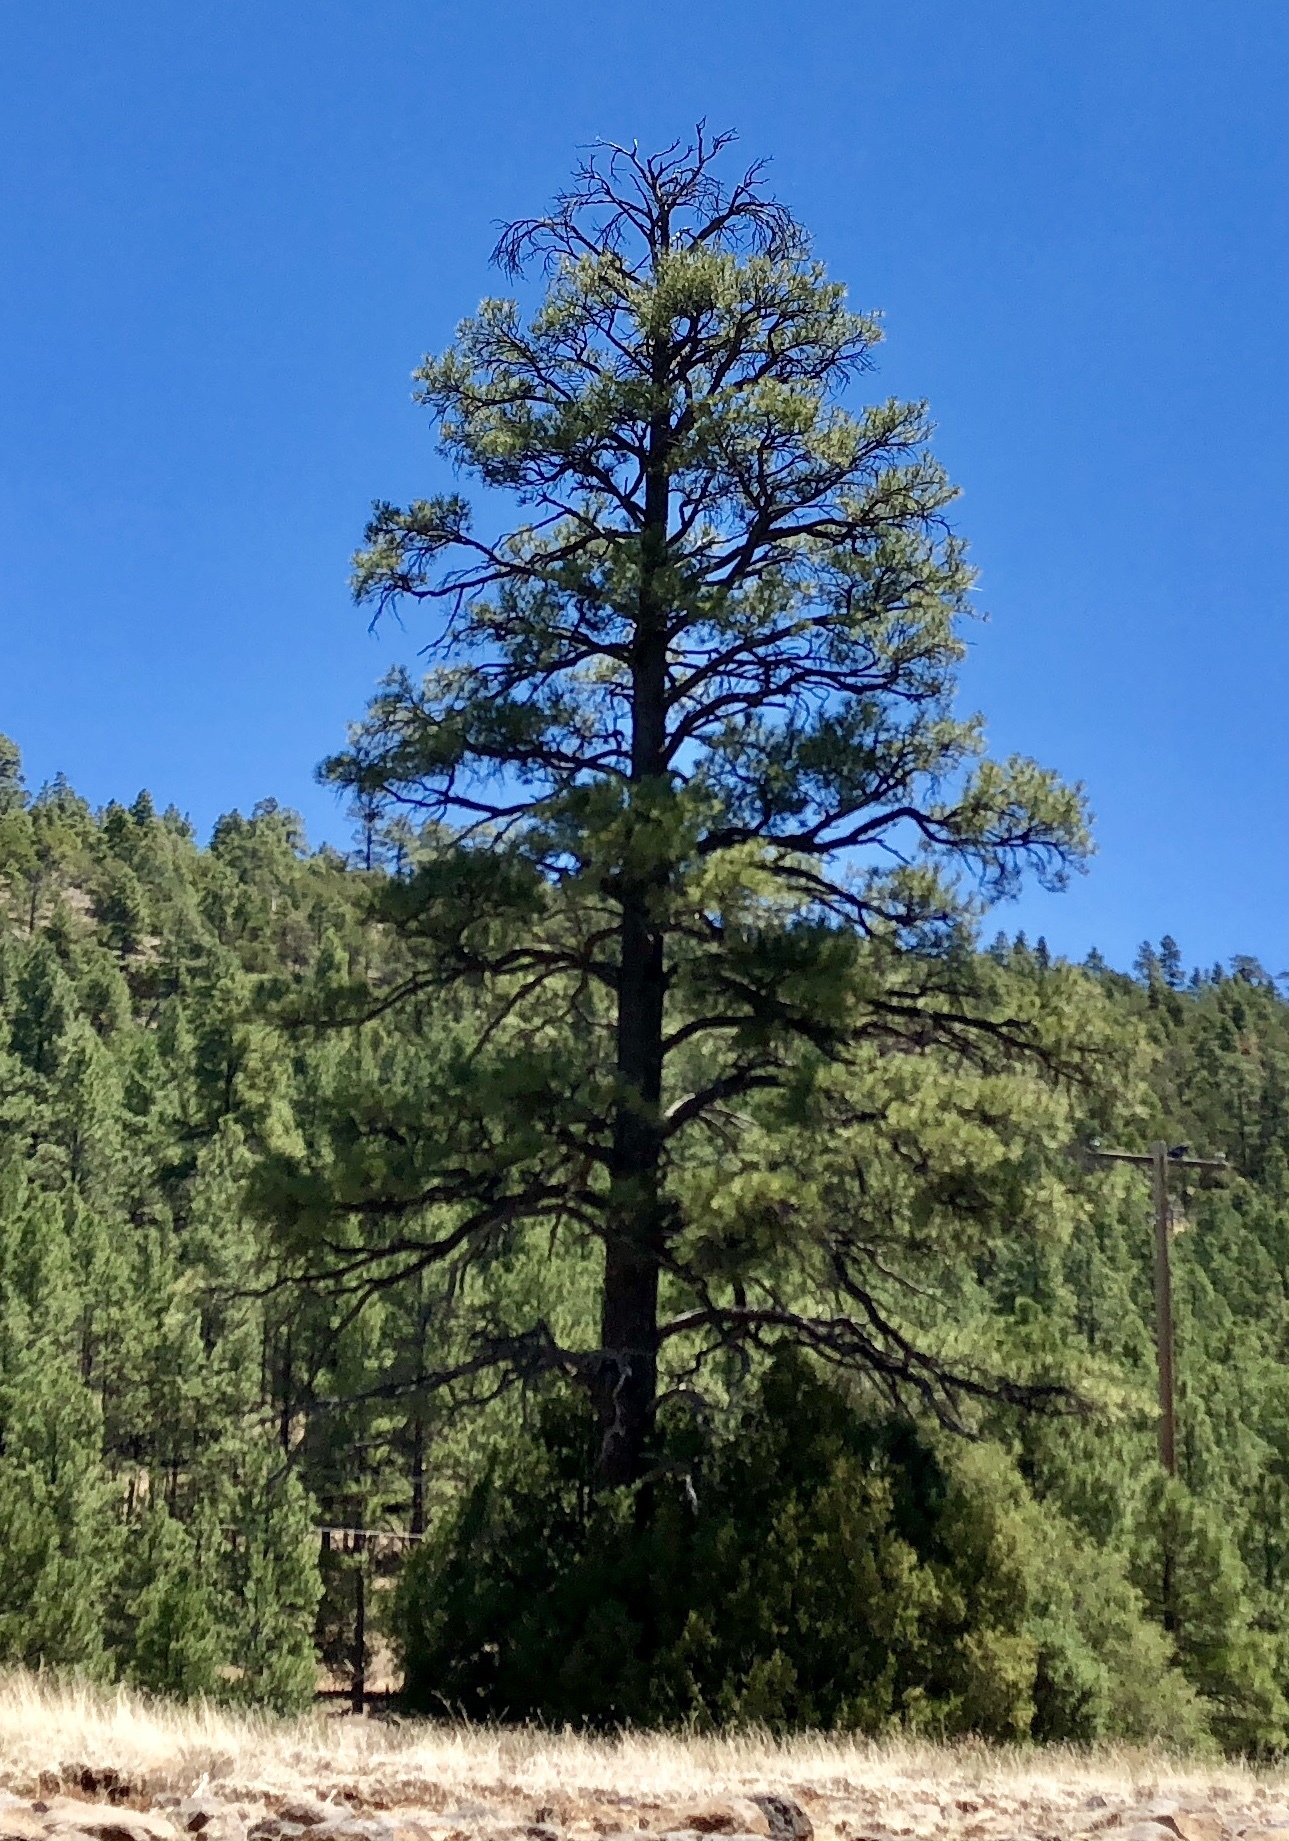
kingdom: Plantae
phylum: Tracheophyta
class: Pinopsida
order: Pinales
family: Pinaceae
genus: Pinus
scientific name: Pinus ponderosa
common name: Western yellow-pine
